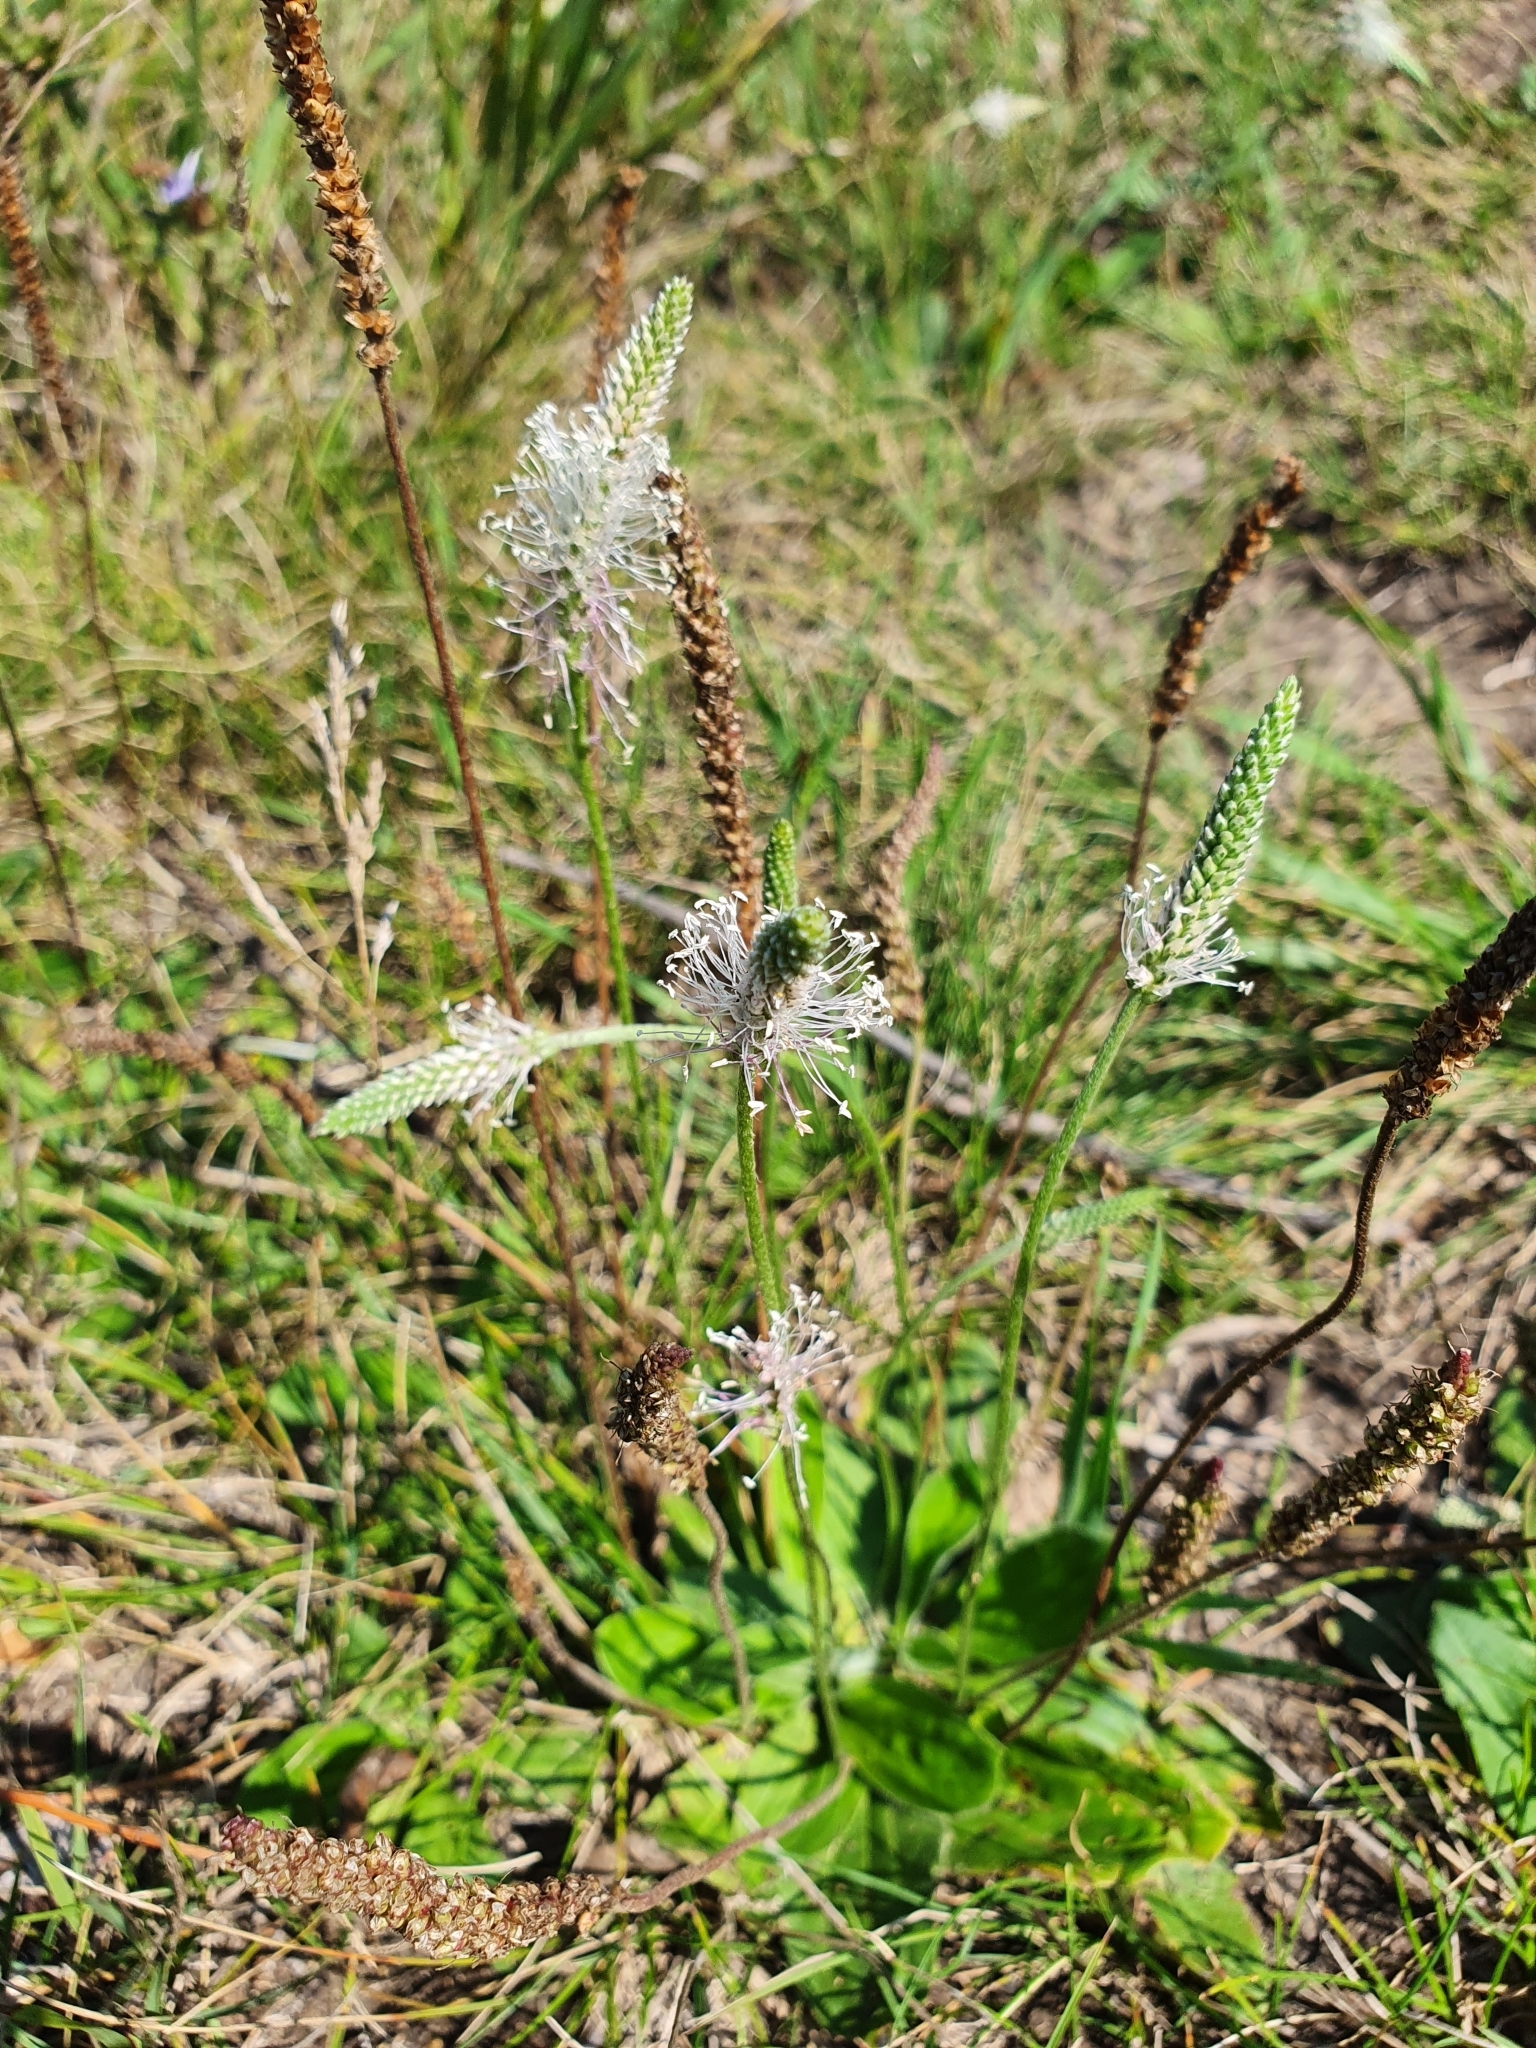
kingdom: Plantae
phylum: Tracheophyta
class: Magnoliopsida
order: Lamiales
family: Plantaginaceae
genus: Plantago
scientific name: Plantago media
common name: Hoary plantain
